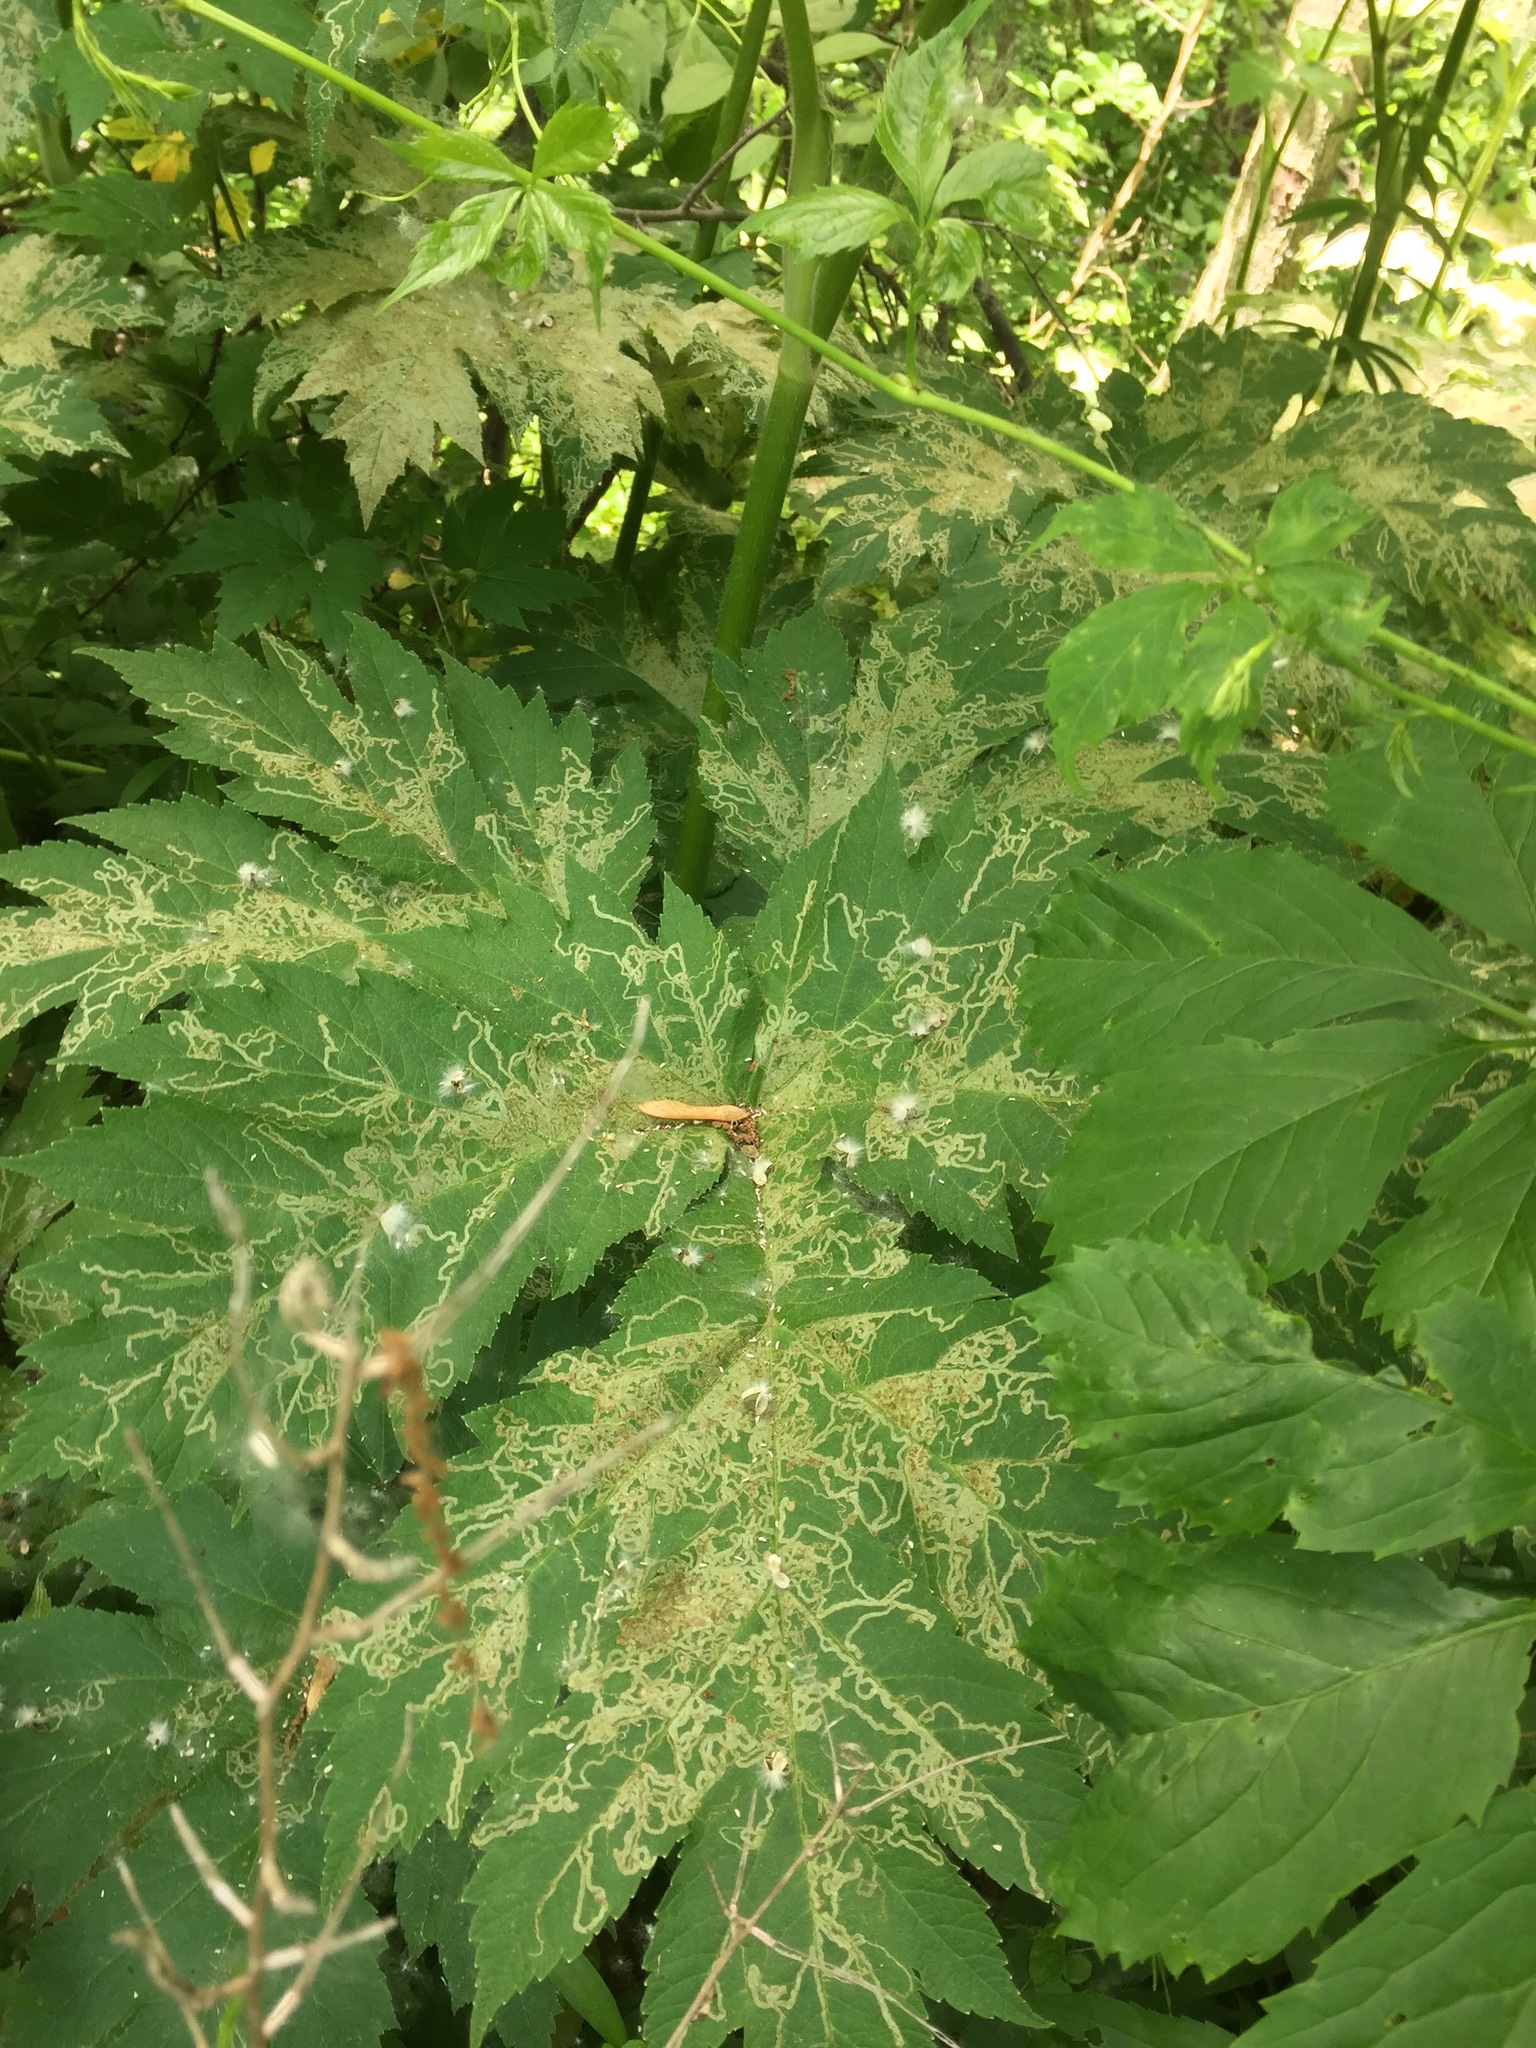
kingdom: Plantae
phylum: Tracheophyta
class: Magnoliopsida
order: Apiales
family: Apiaceae
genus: Heracleum
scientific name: Heracleum maximum
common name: American cow parsnip
